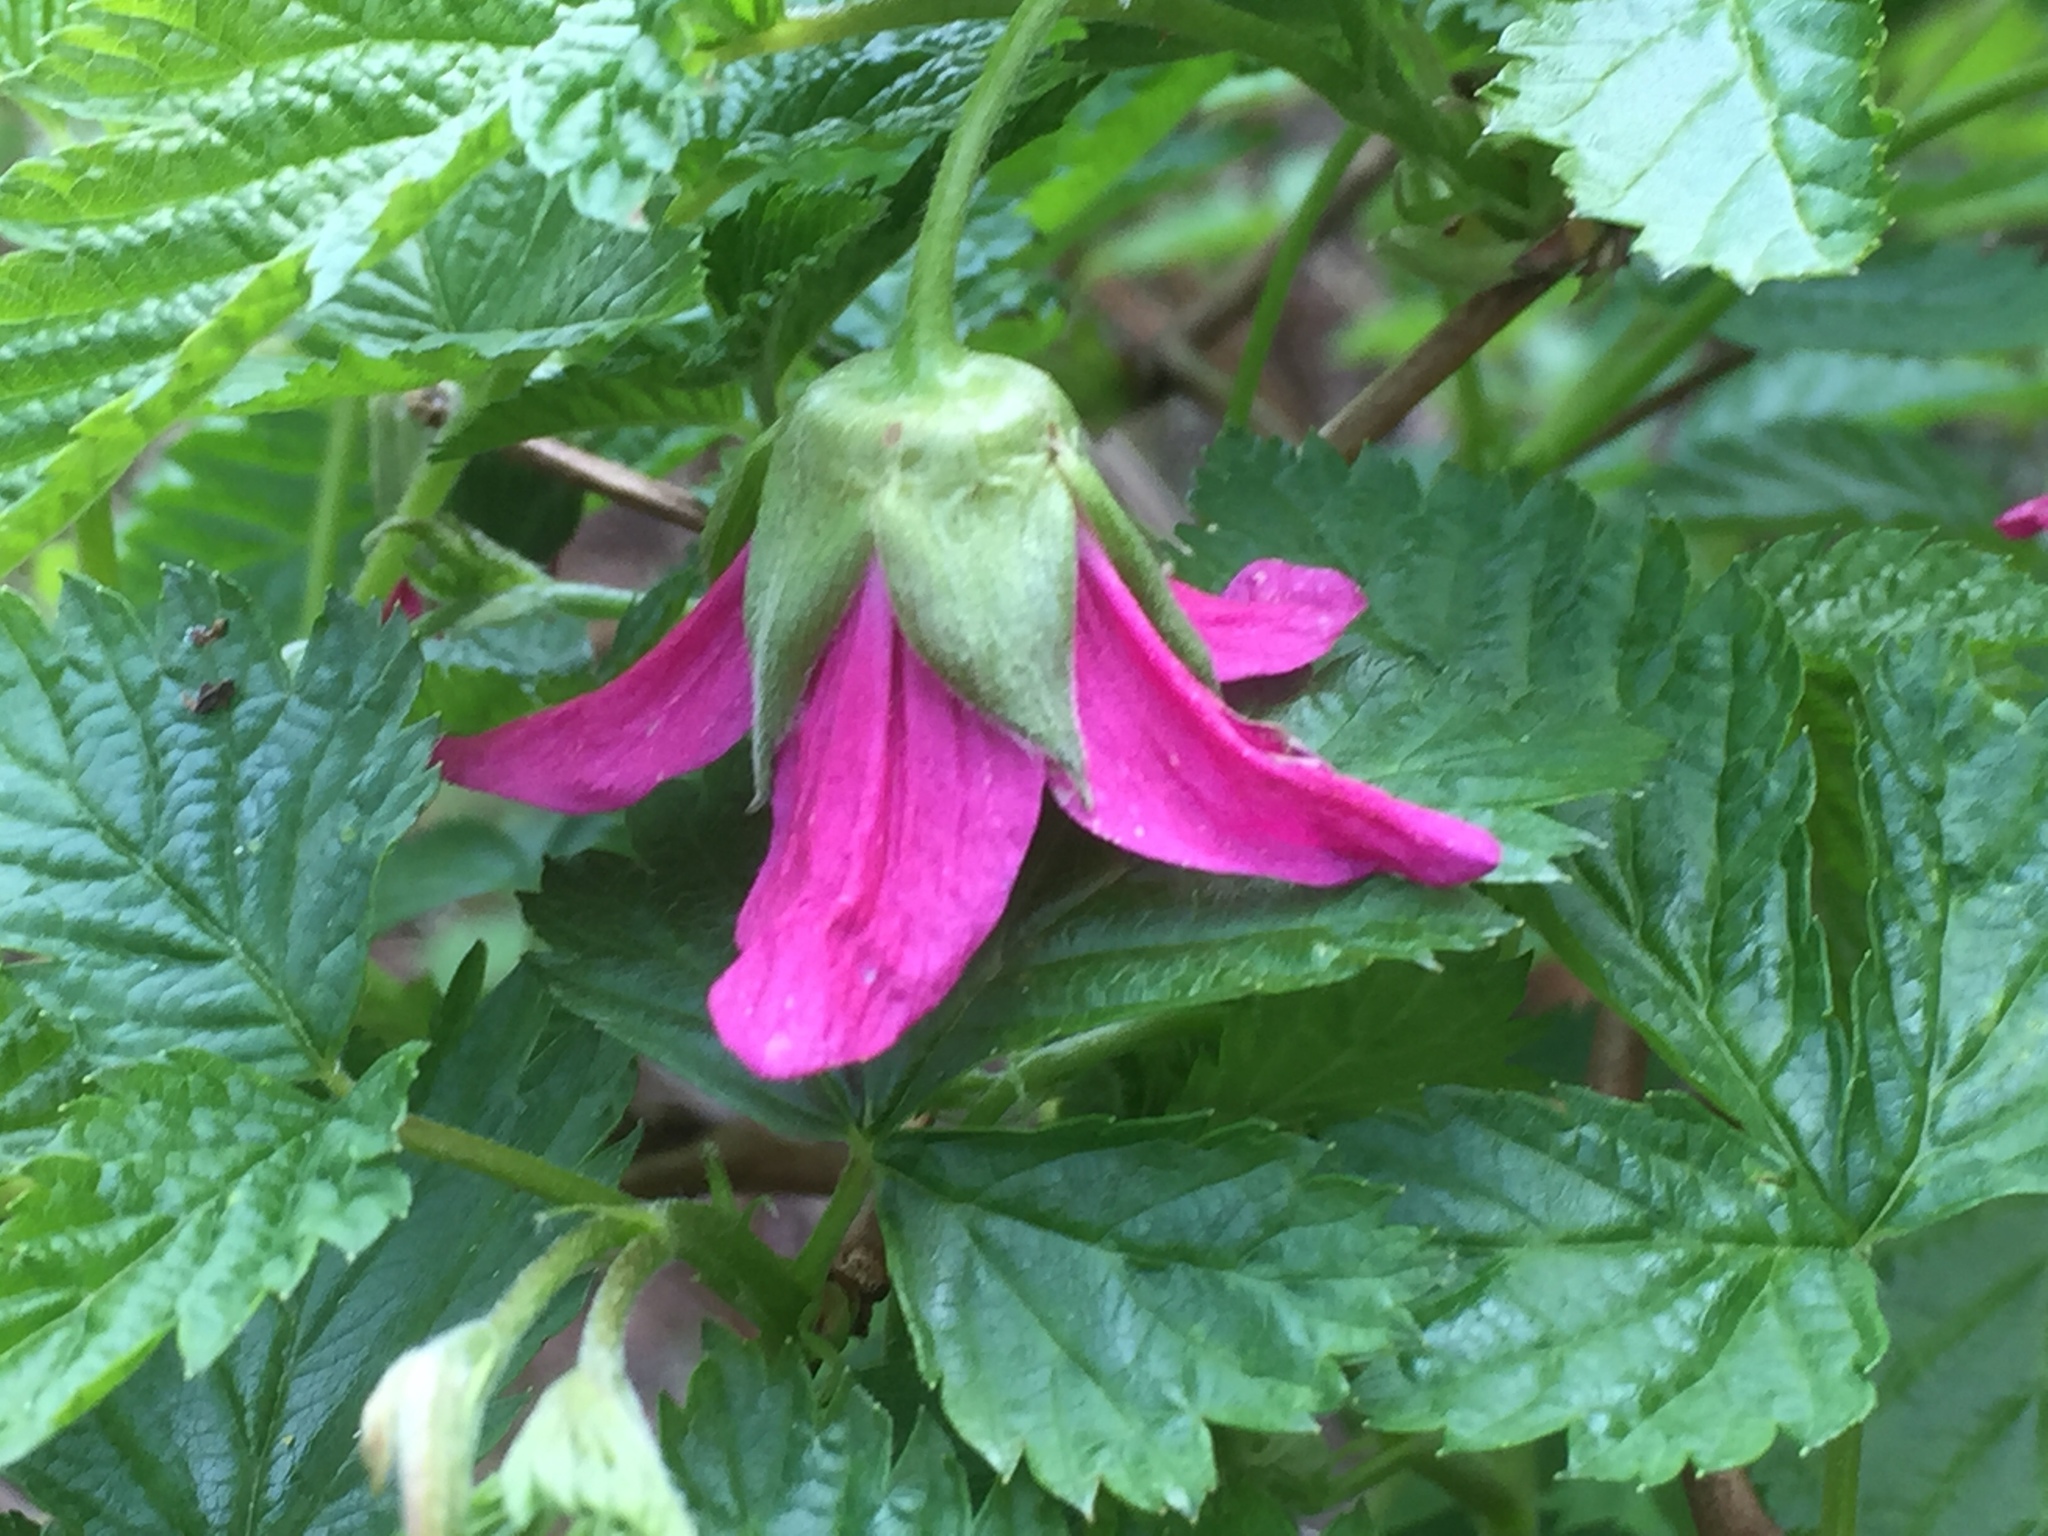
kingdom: Plantae
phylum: Tracheophyta
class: Magnoliopsida
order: Rosales
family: Rosaceae
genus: Rubus
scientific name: Rubus spectabilis
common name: Salmonberry
